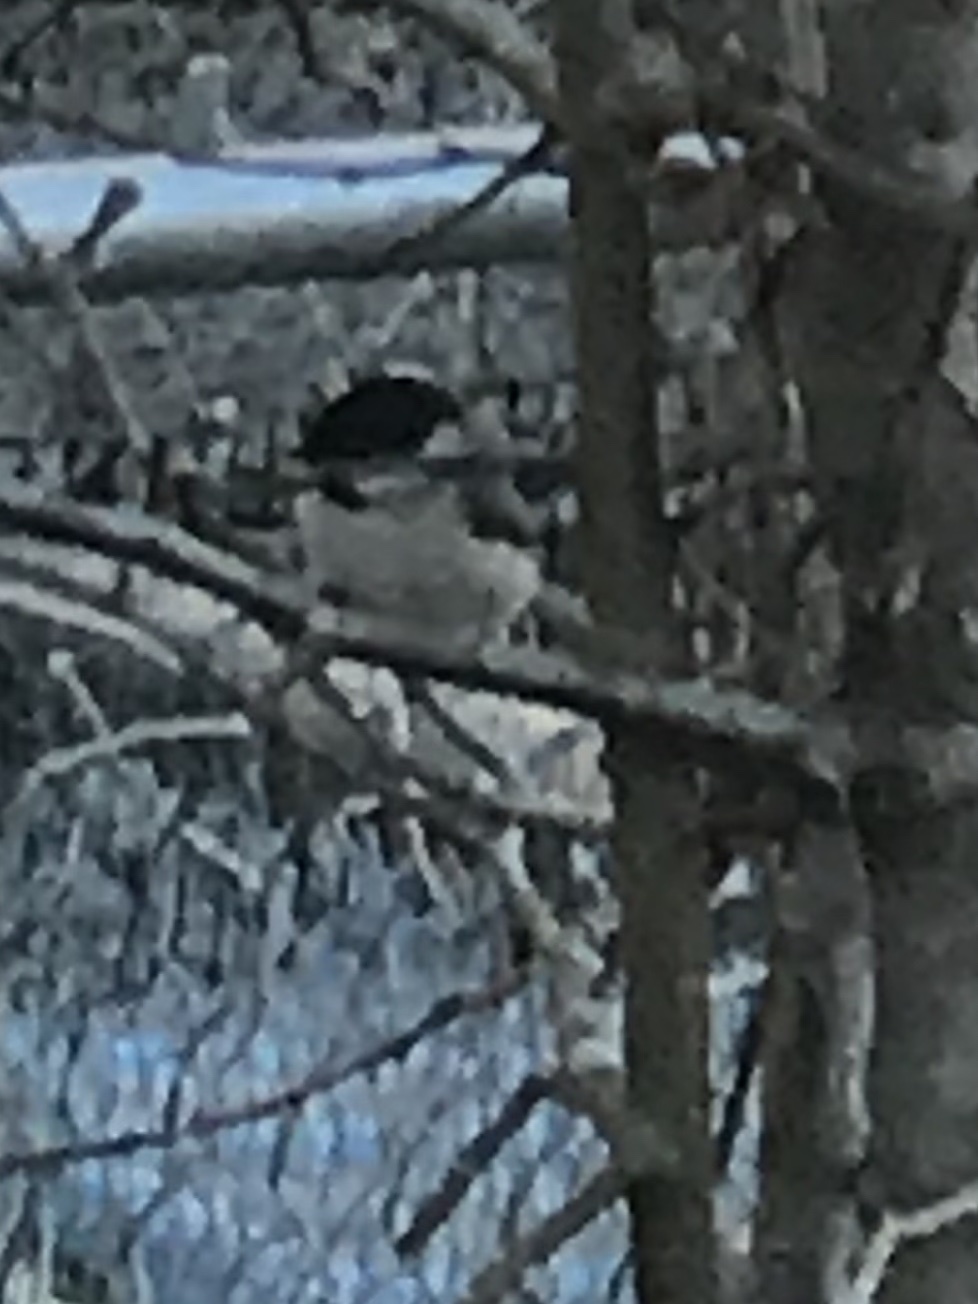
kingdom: Animalia
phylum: Chordata
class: Aves
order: Passeriformes
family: Paridae
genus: Poecile
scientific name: Poecile carolinensis
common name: Carolina chickadee
